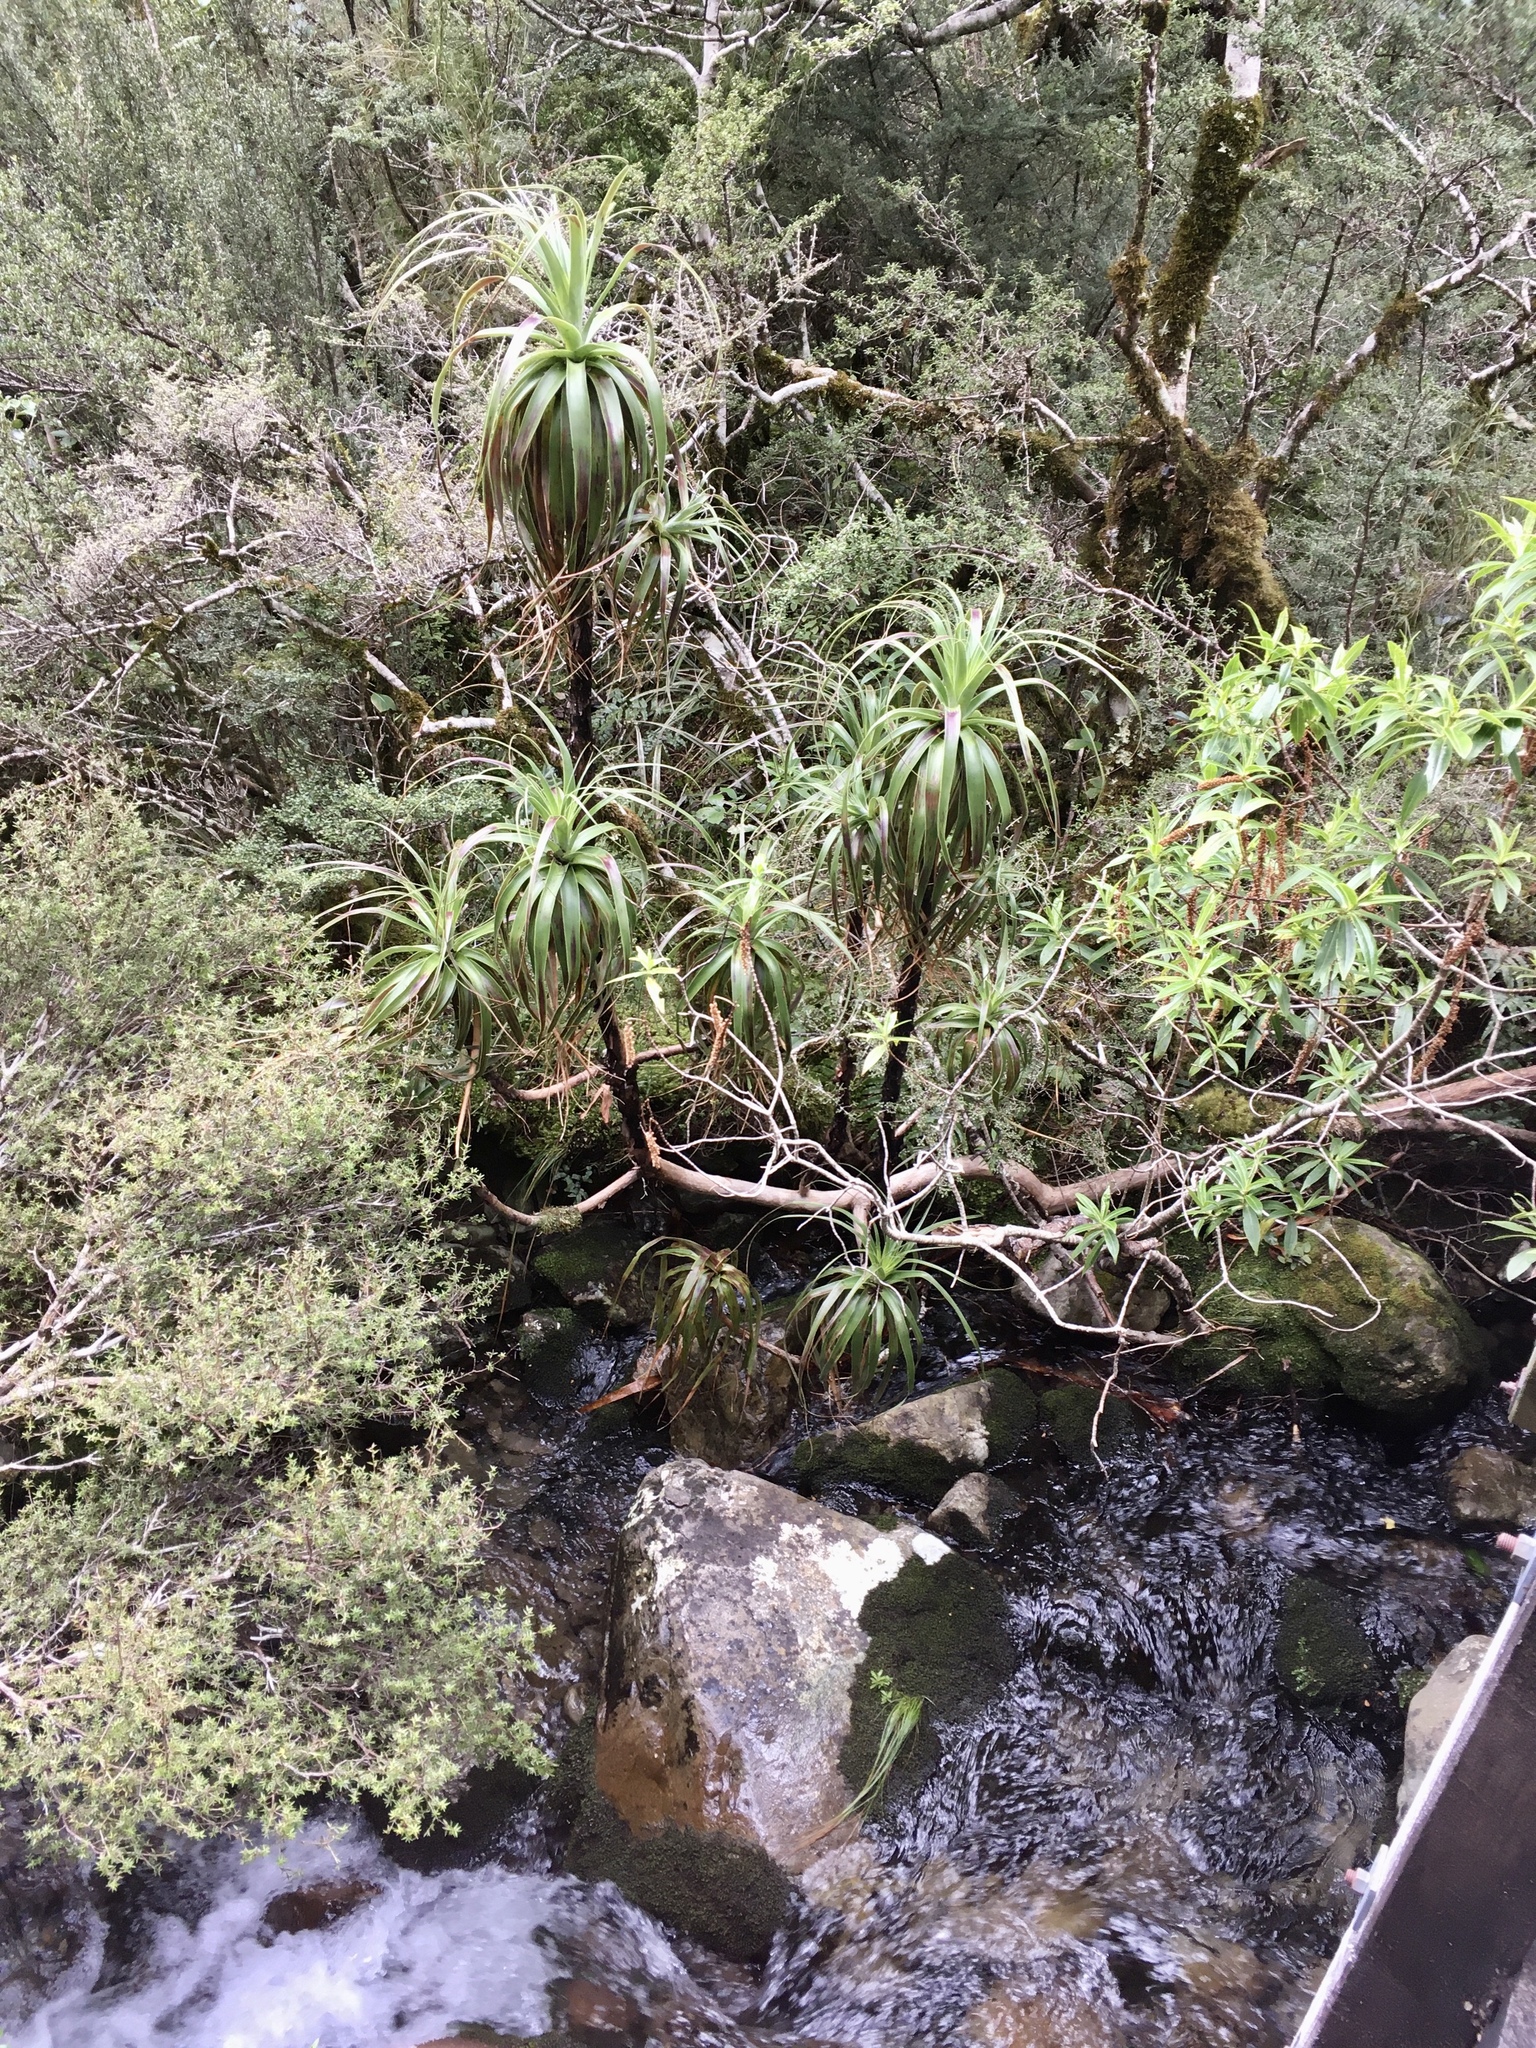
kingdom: Plantae
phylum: Tracheophyta
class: Magnoliopsida
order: Ericales
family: Ericaceae
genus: Dracophyllum
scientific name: Dracophyllum traversii
